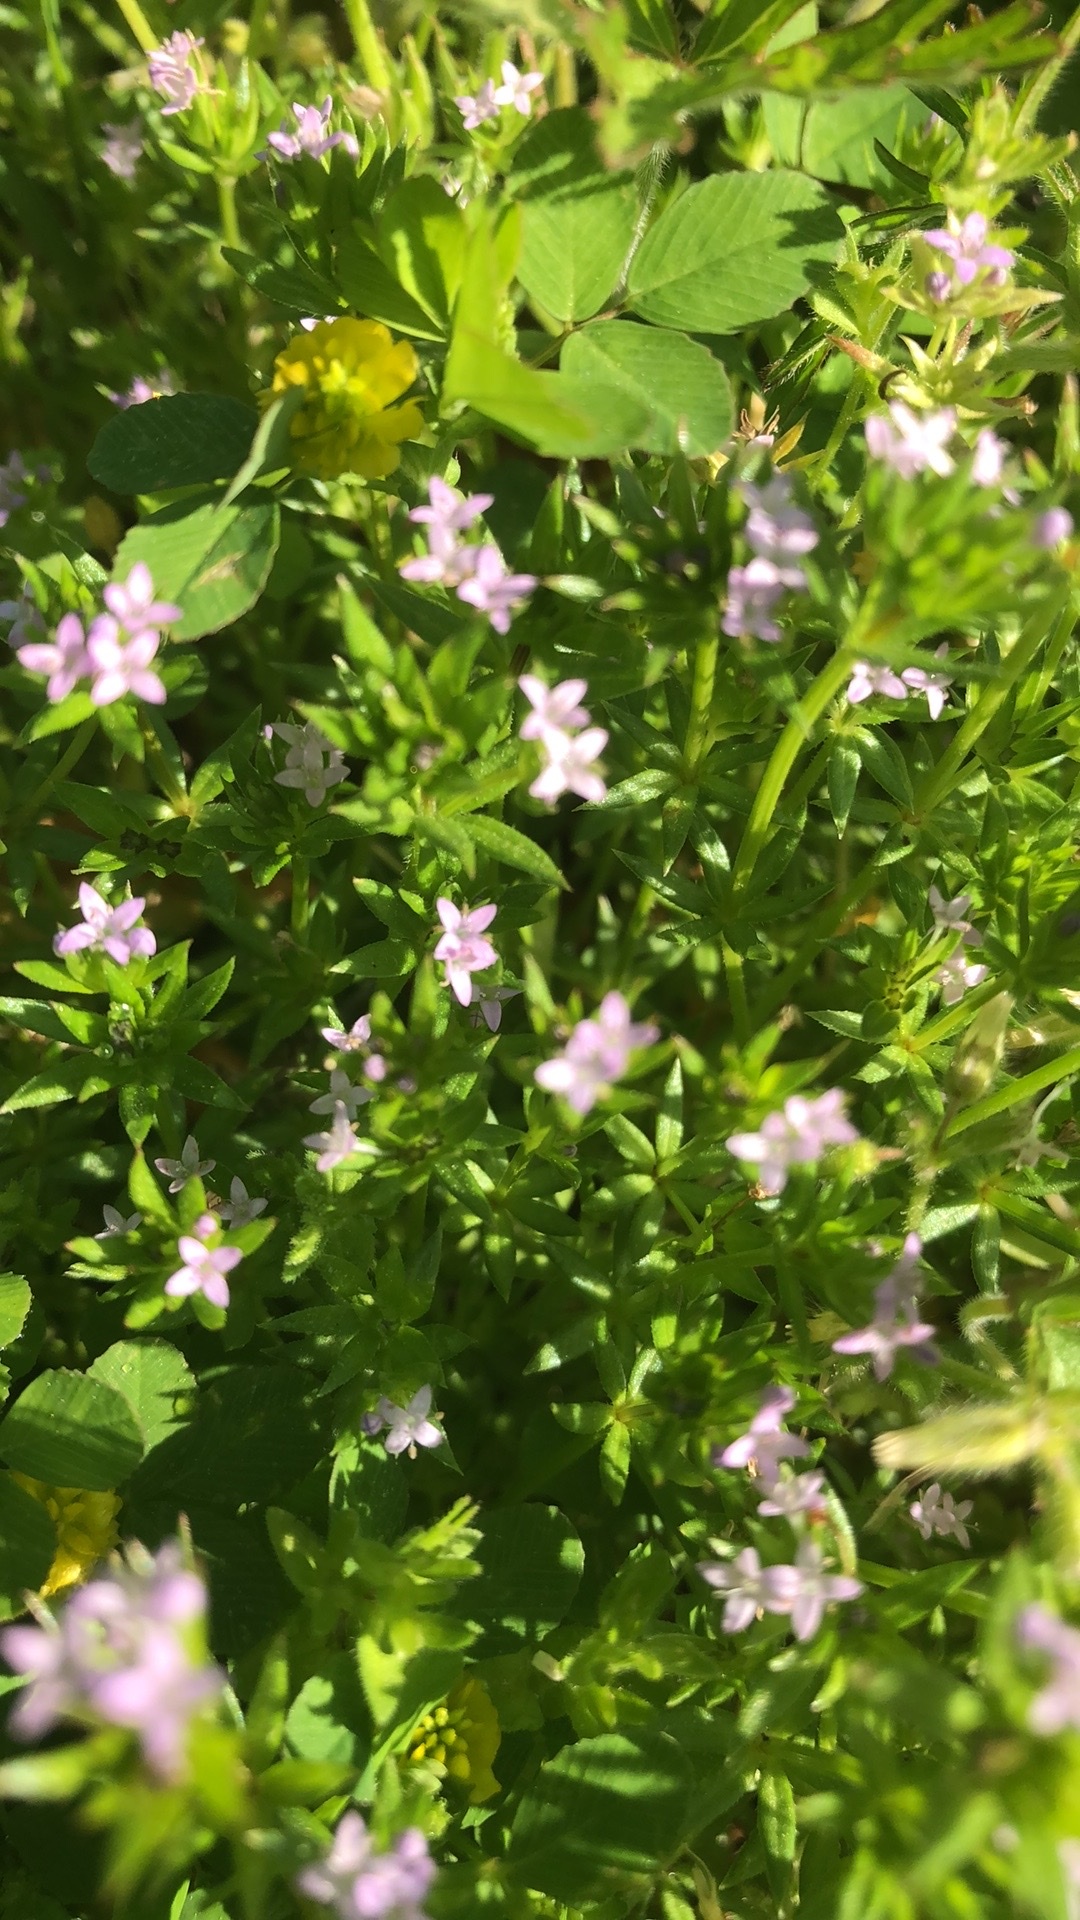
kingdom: Plantae
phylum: Tracheophyta
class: Magnoliopsida
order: Gentianales
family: Rubiaceae
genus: Sherardia
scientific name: Sherardia arvensis
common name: Field madder
